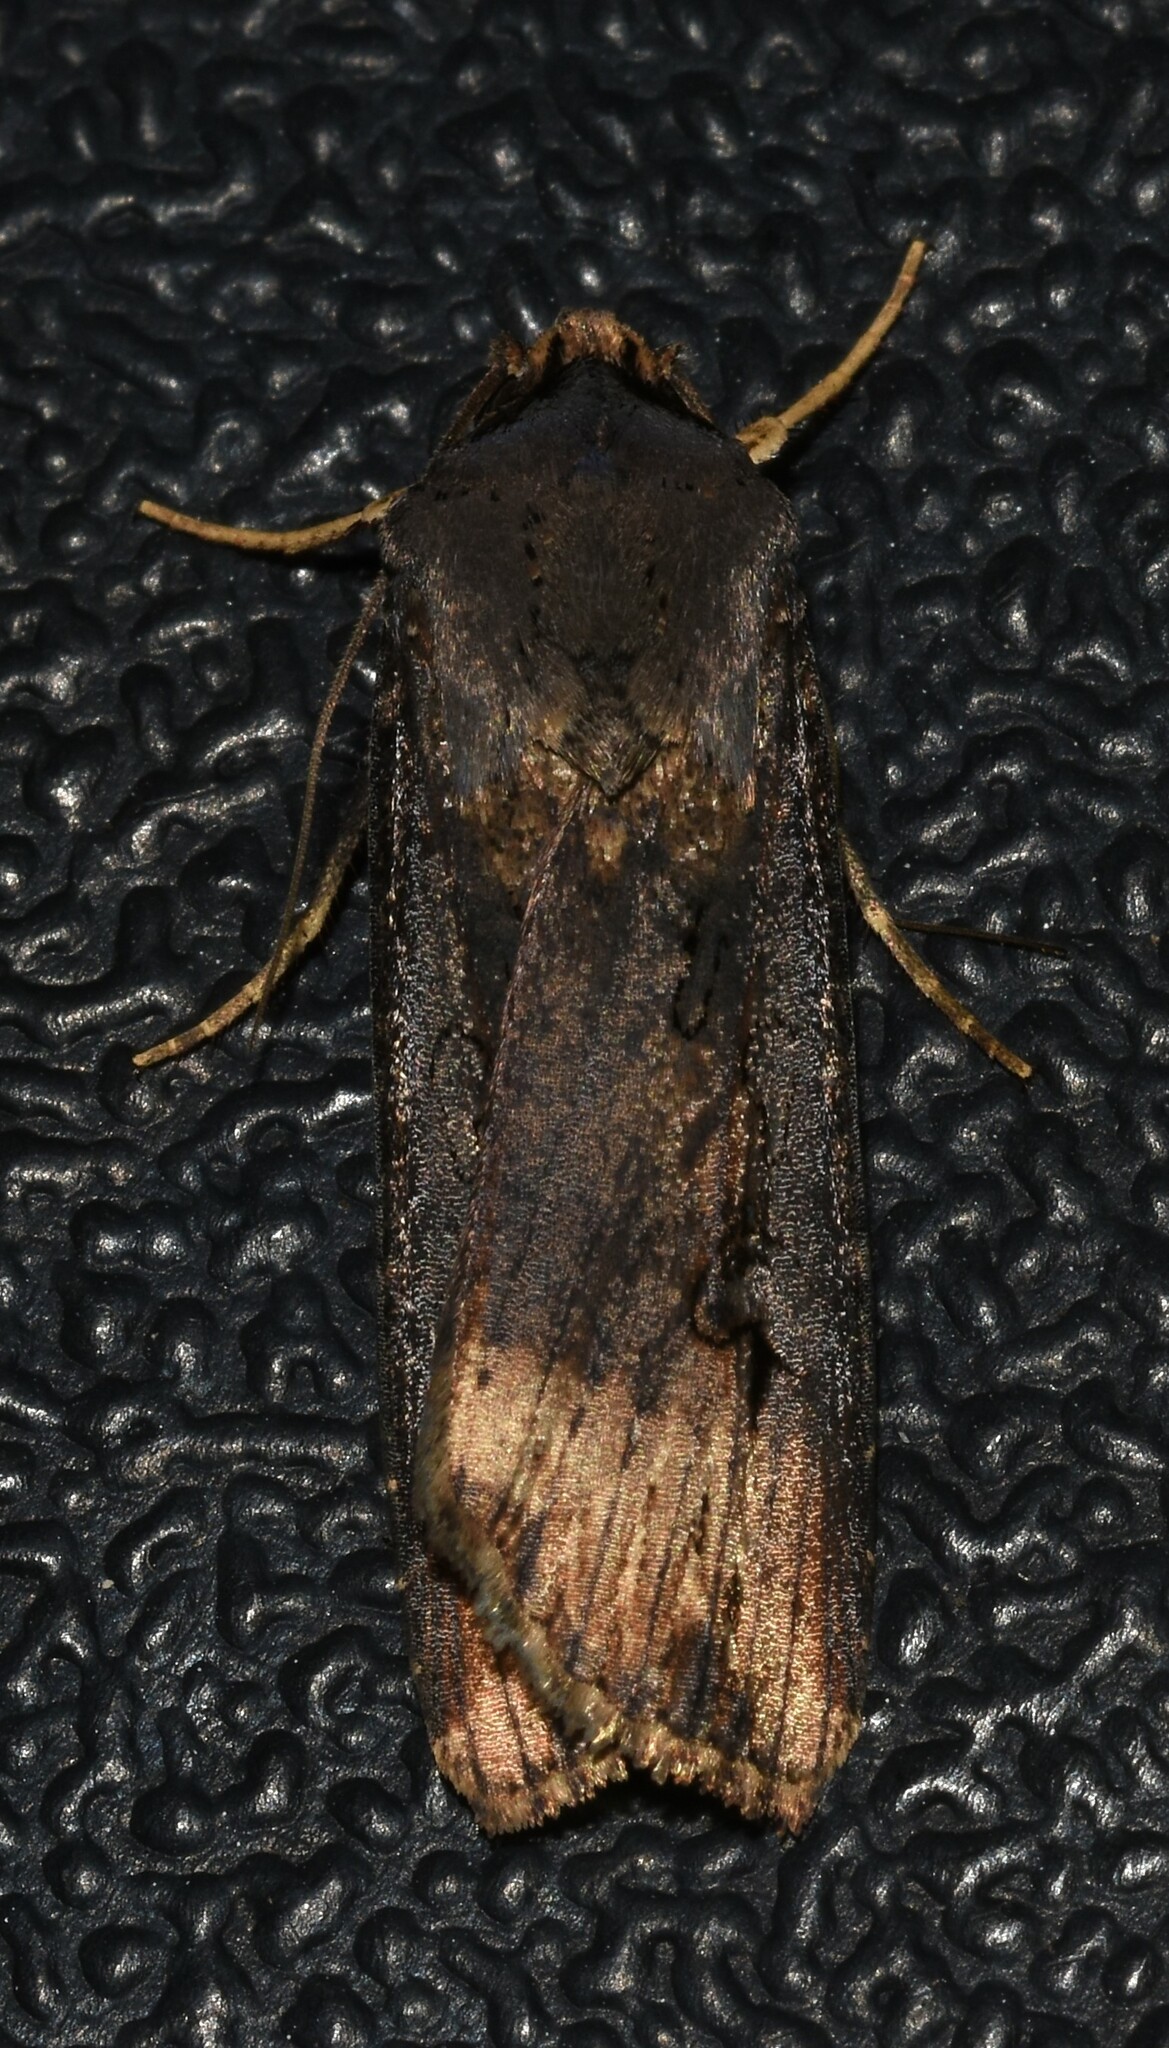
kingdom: Animalia
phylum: Arthropoda
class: Insecta
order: Lepidoptera
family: Noctuidae
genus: Agrotis
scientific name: Agrotis ipsilon
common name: Dark sword-grass
